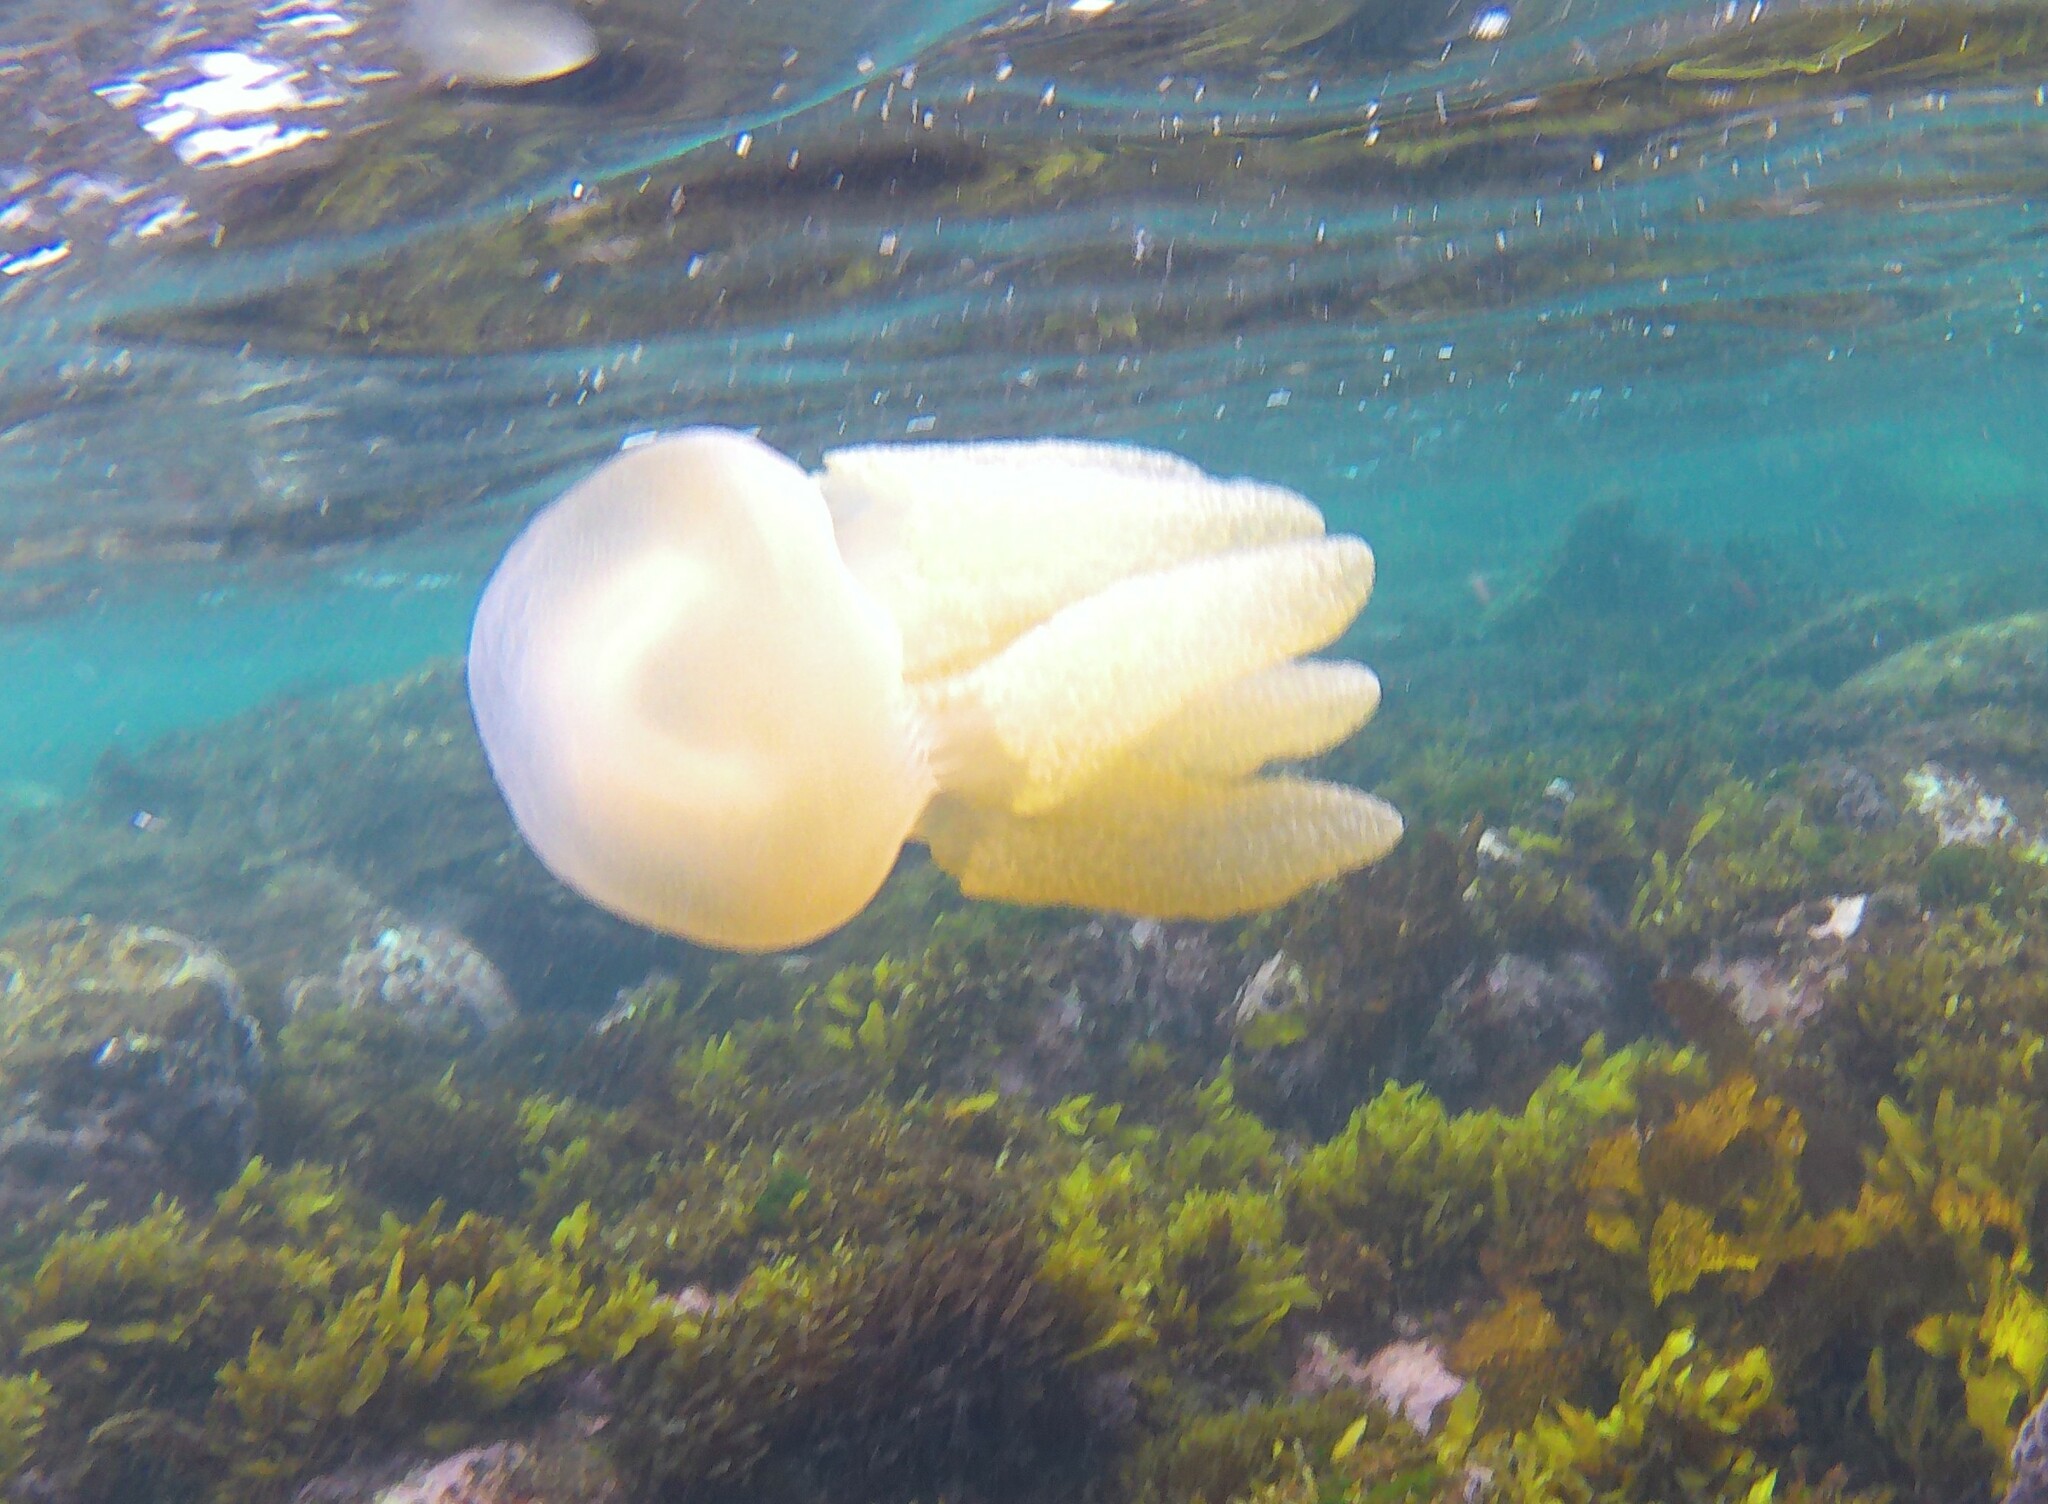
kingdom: Animalia
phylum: Cnidaria
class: Scyphozoa
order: Rhizostomeae
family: Catostylidae
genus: Catostylus
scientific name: Catostylus mosaicus
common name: Blue blubber
